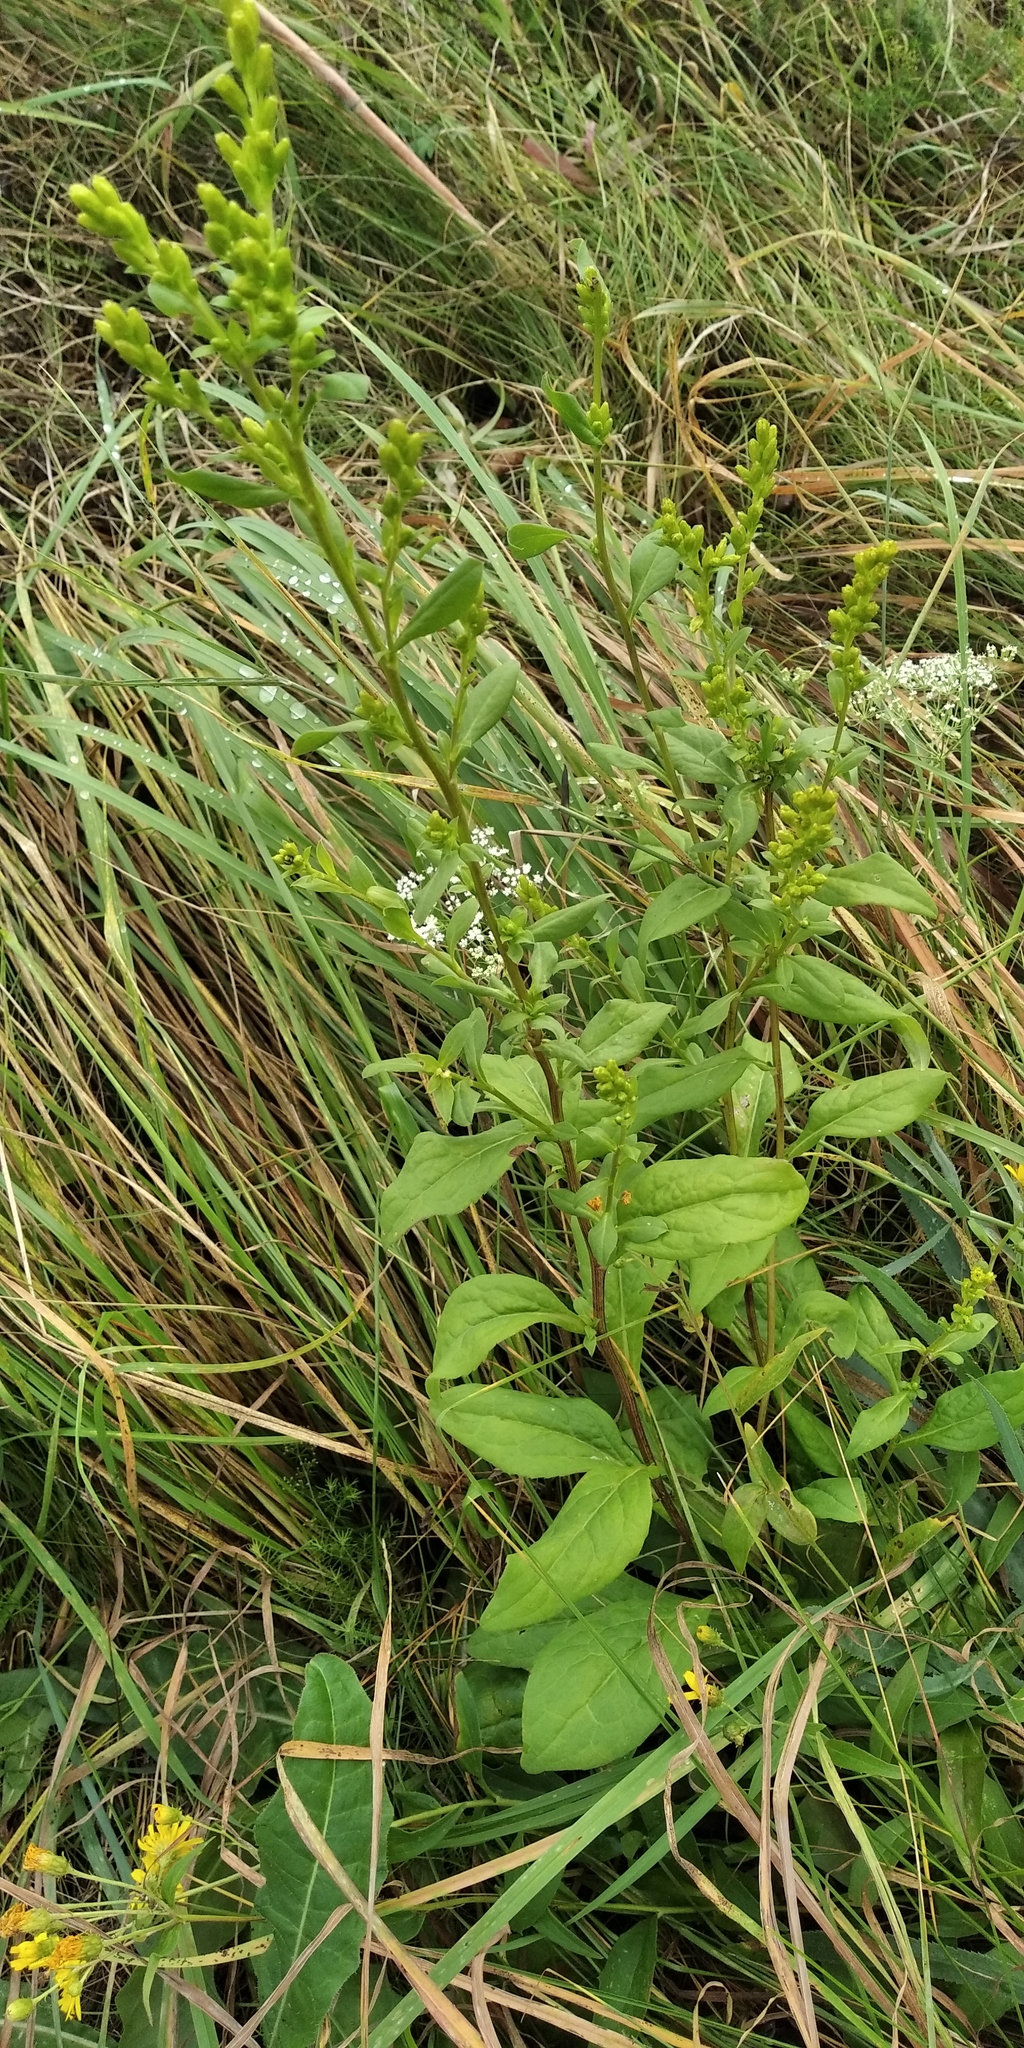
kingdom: Plantae
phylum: Tracheophyta
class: Magnoliopsida
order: Asterales
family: Asteraceae
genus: Solidago
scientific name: Solidago virgaurea
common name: Goldenrod
